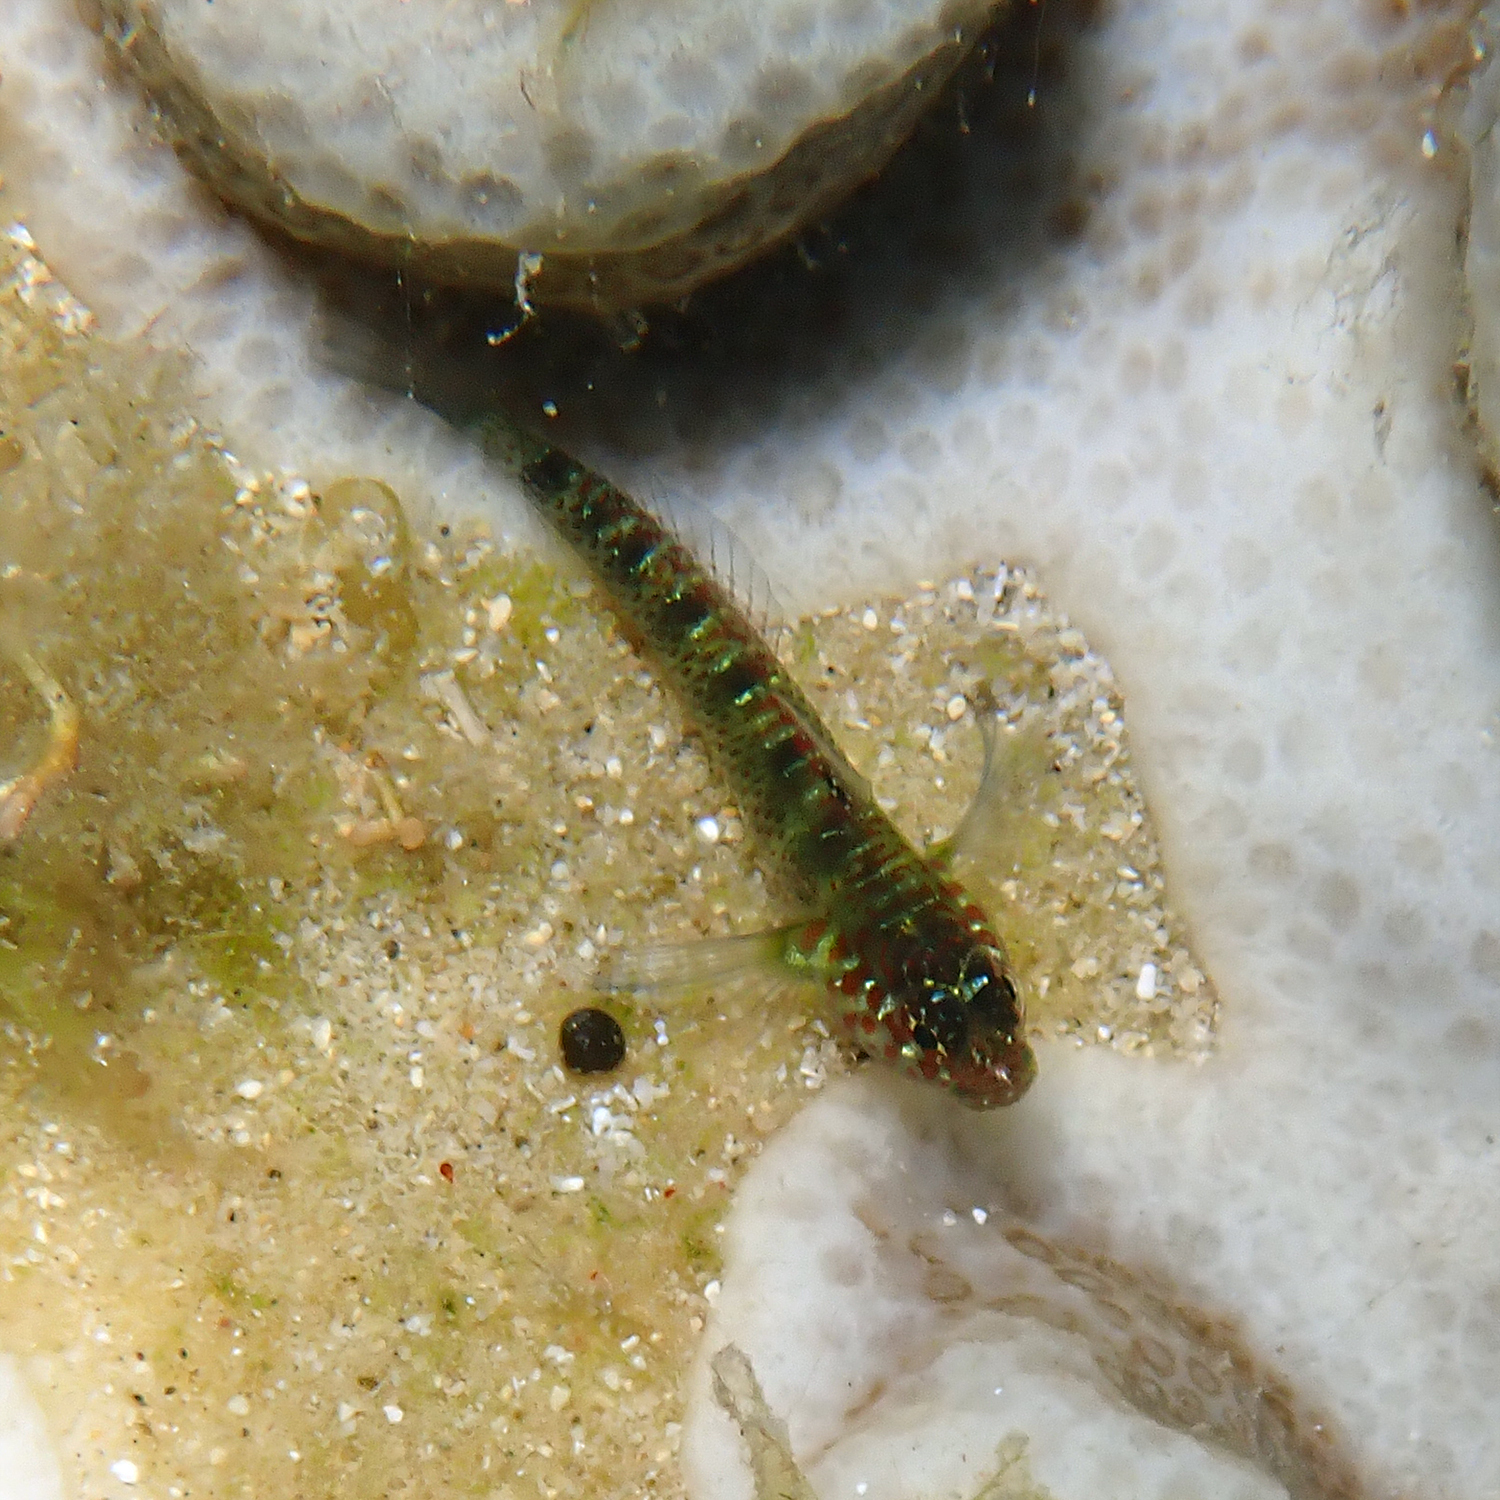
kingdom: Animalia
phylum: Chordata
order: Perciformes
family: Gobiidae
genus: Eviota
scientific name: Eviota hoesei
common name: Doug's eviota
